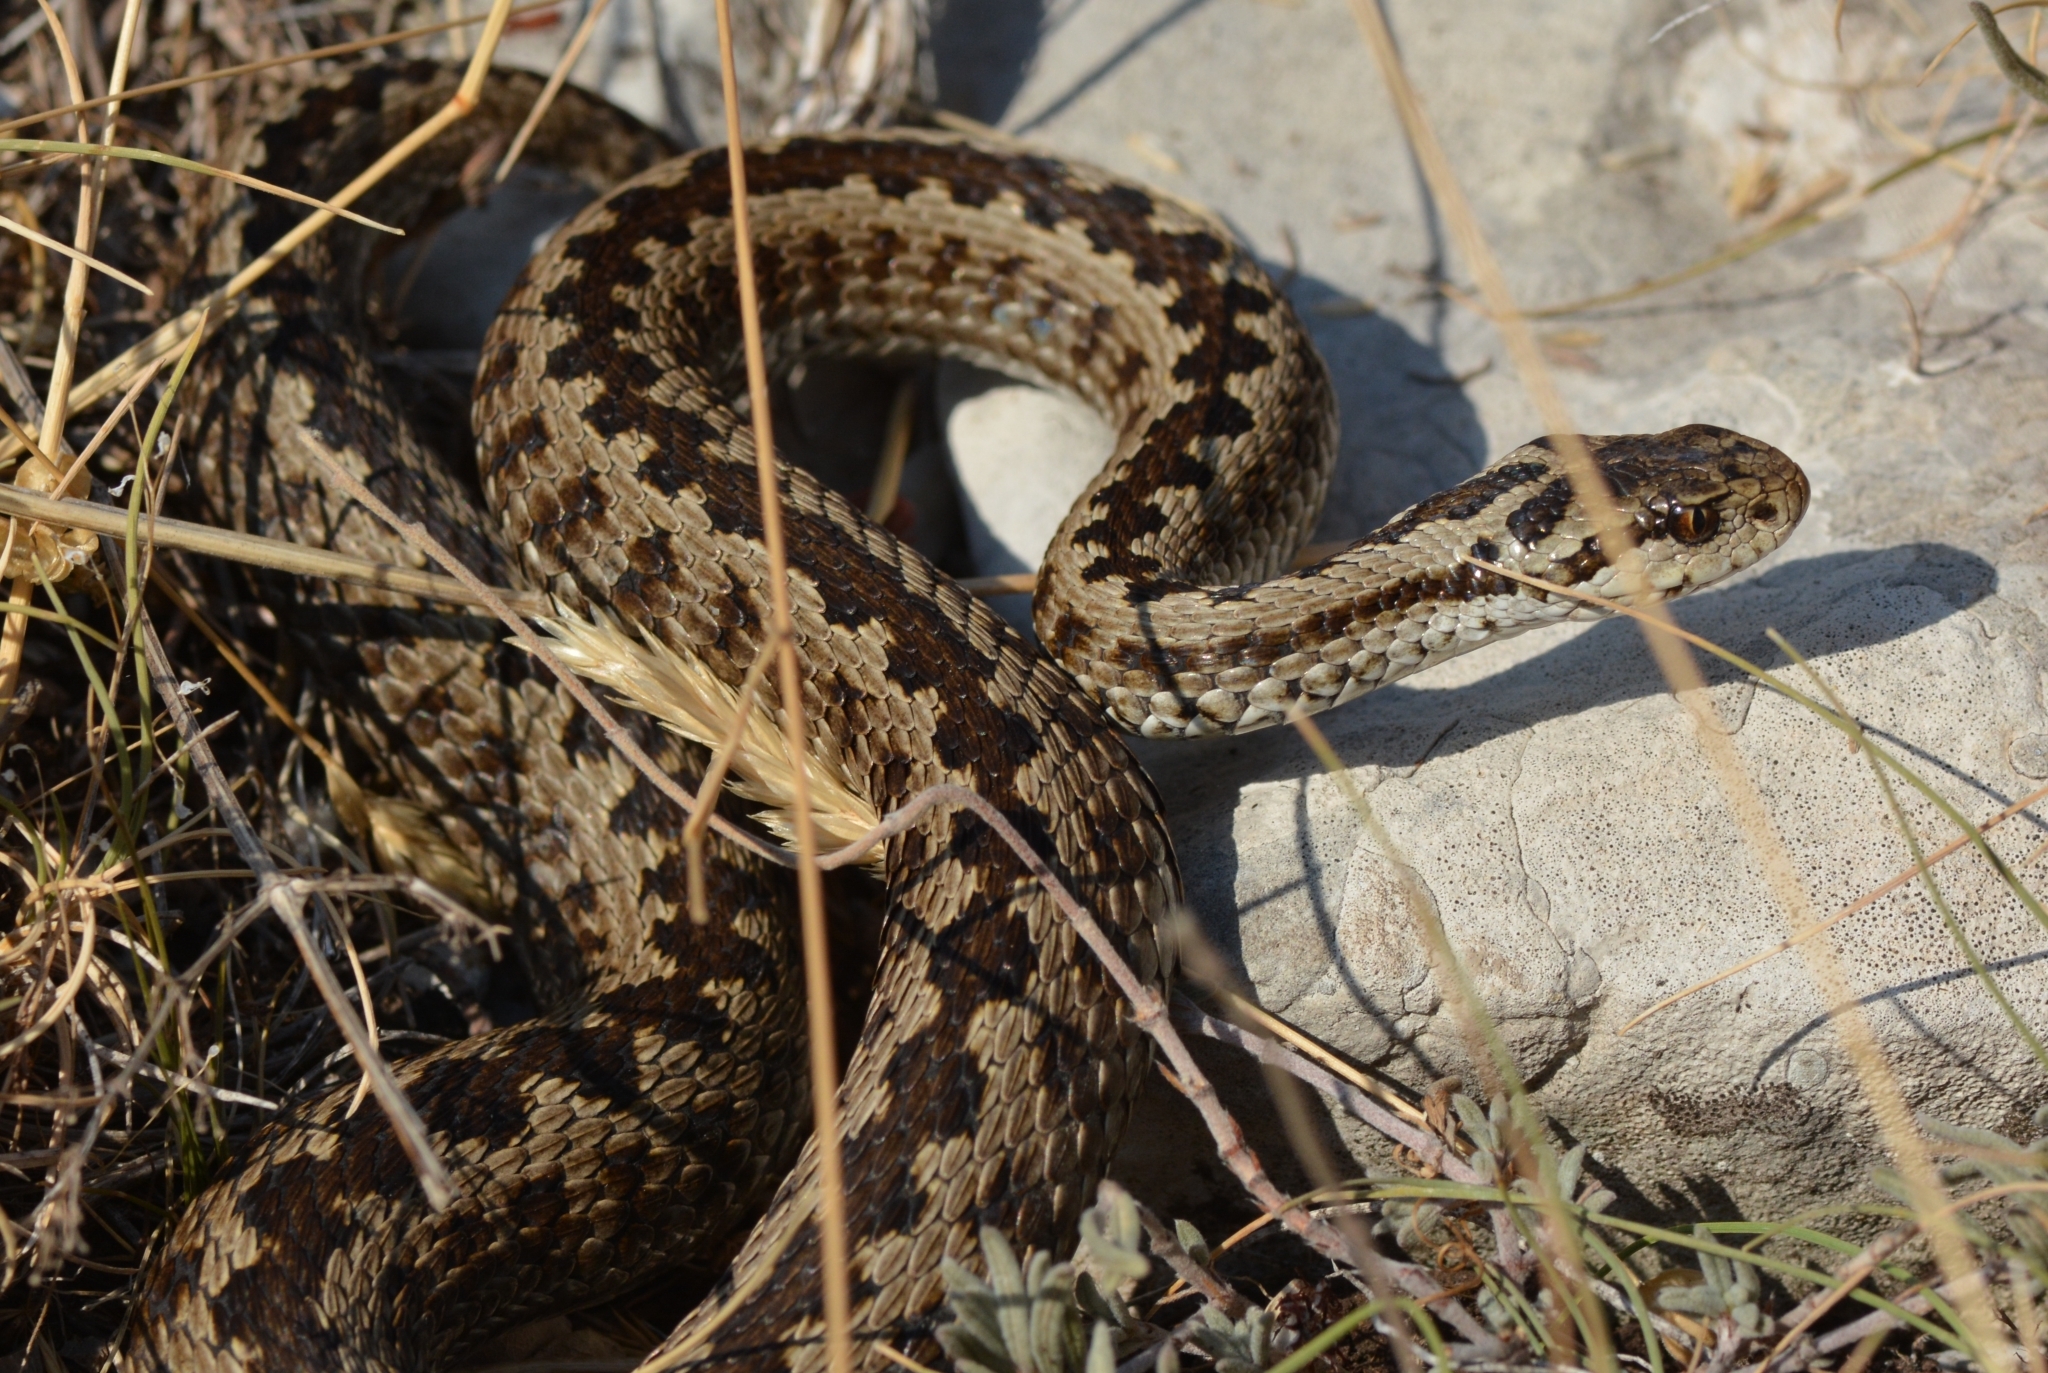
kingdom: Animalia
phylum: Chordata
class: Squamata
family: Viperidae
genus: Vipera
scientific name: Vipera ursinii
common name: Meadow viper
